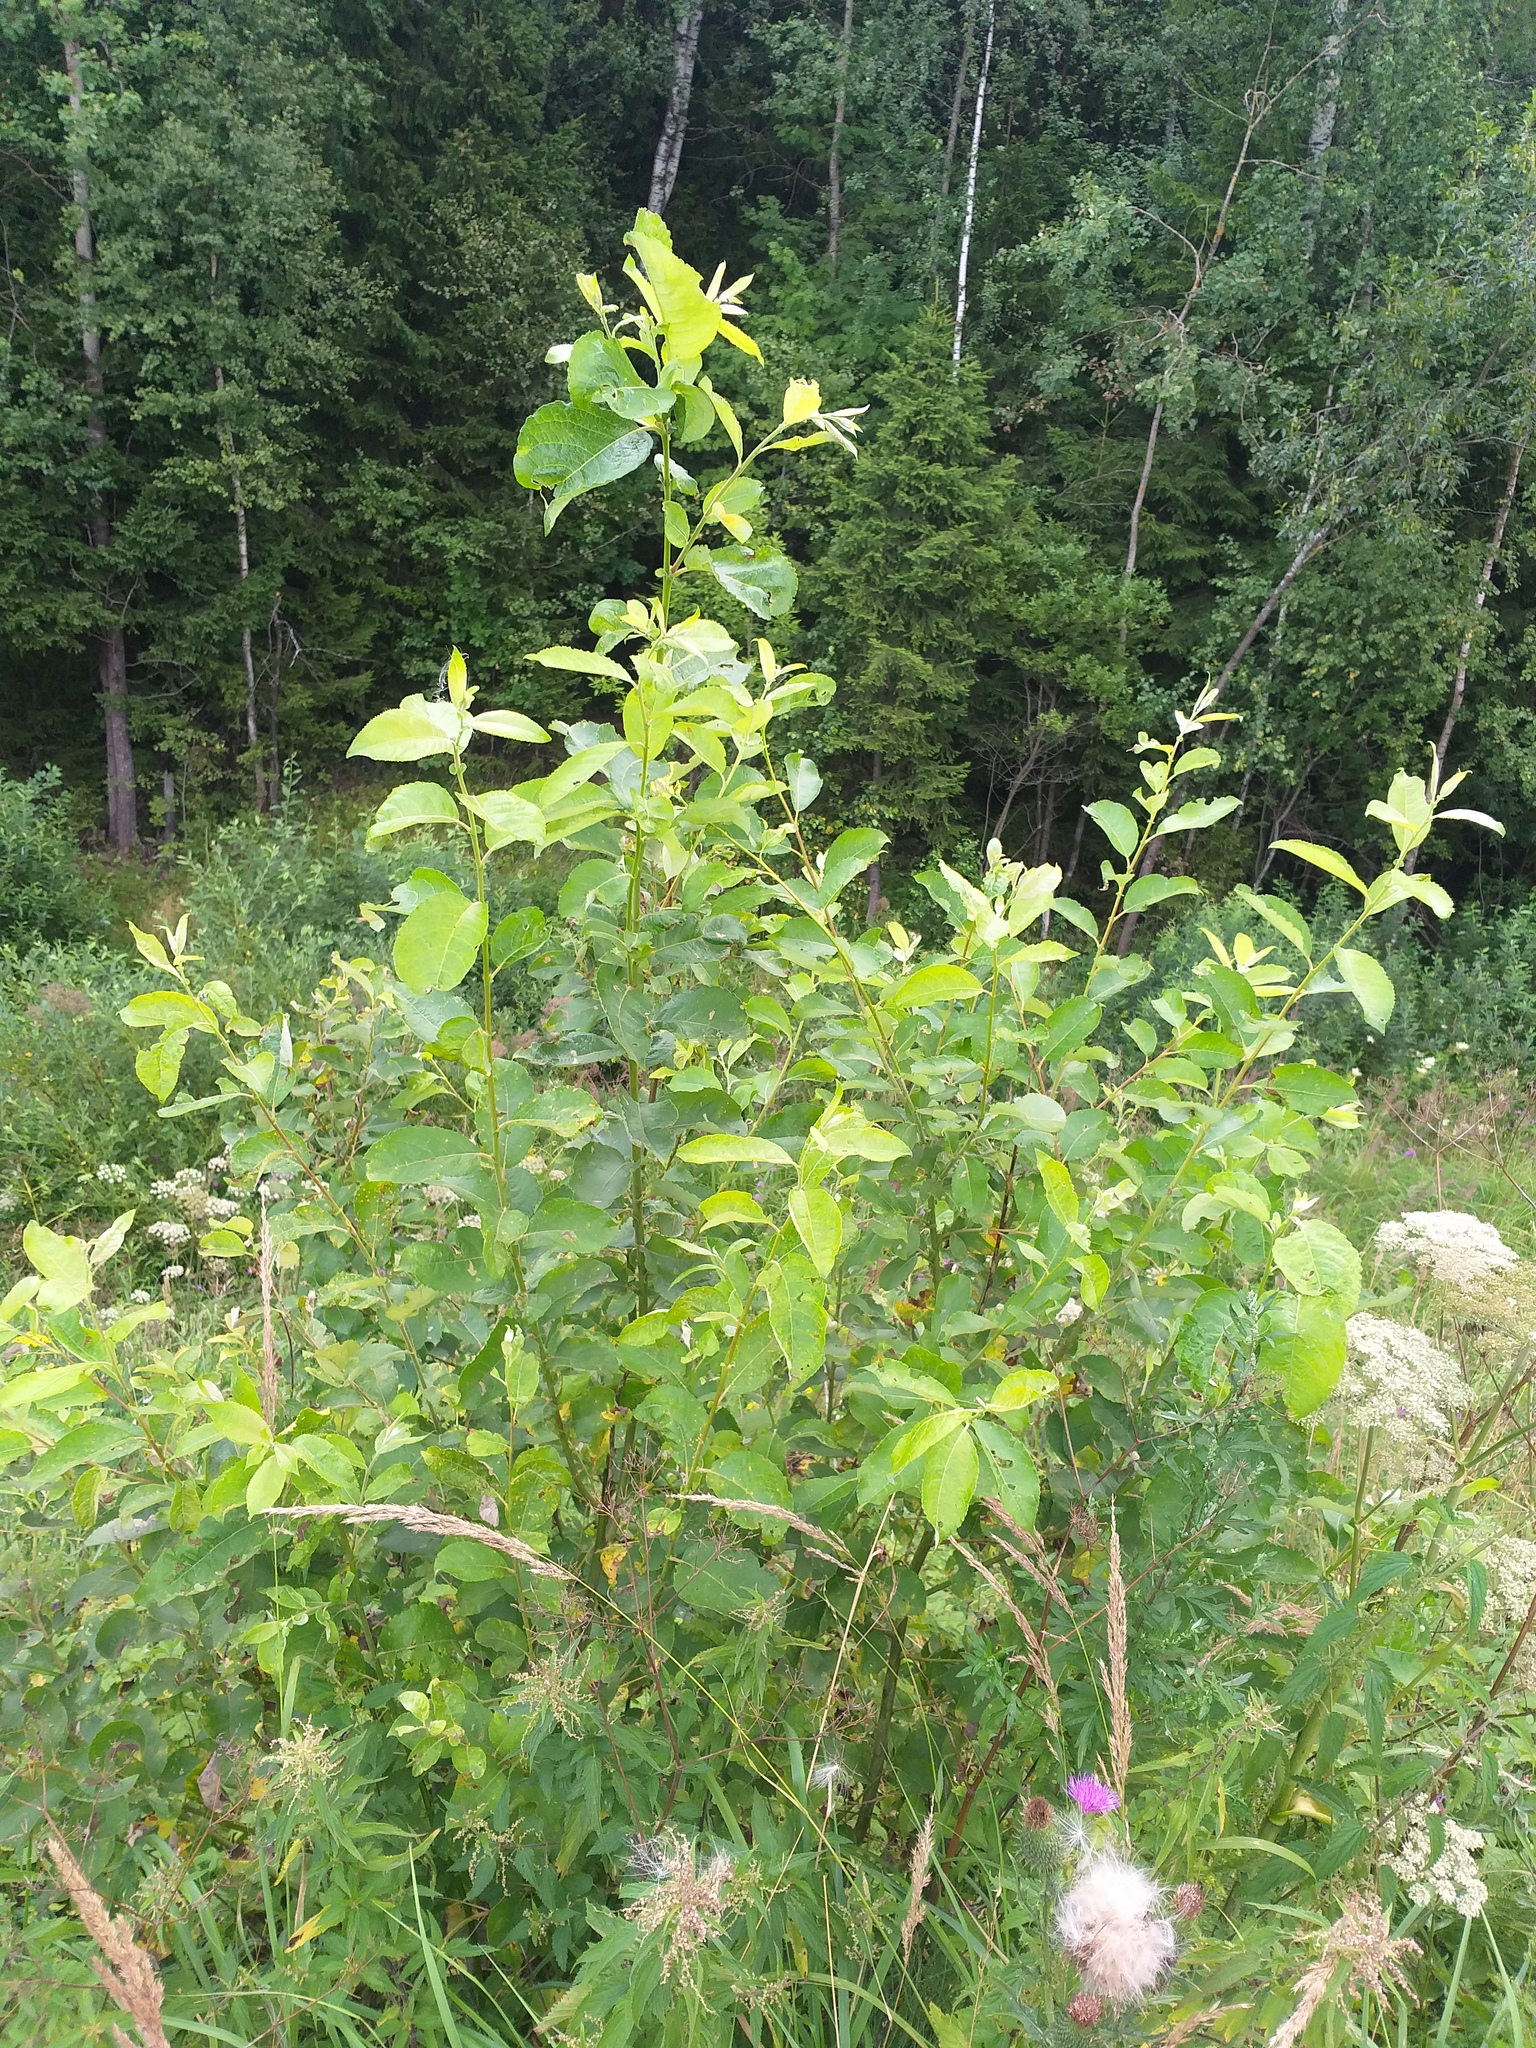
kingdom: Plantae
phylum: Tracheophyta
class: Magnoliopsida
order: Malpighiales
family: Salicaceae
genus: Salix
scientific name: Salix caprea
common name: Goat willow
